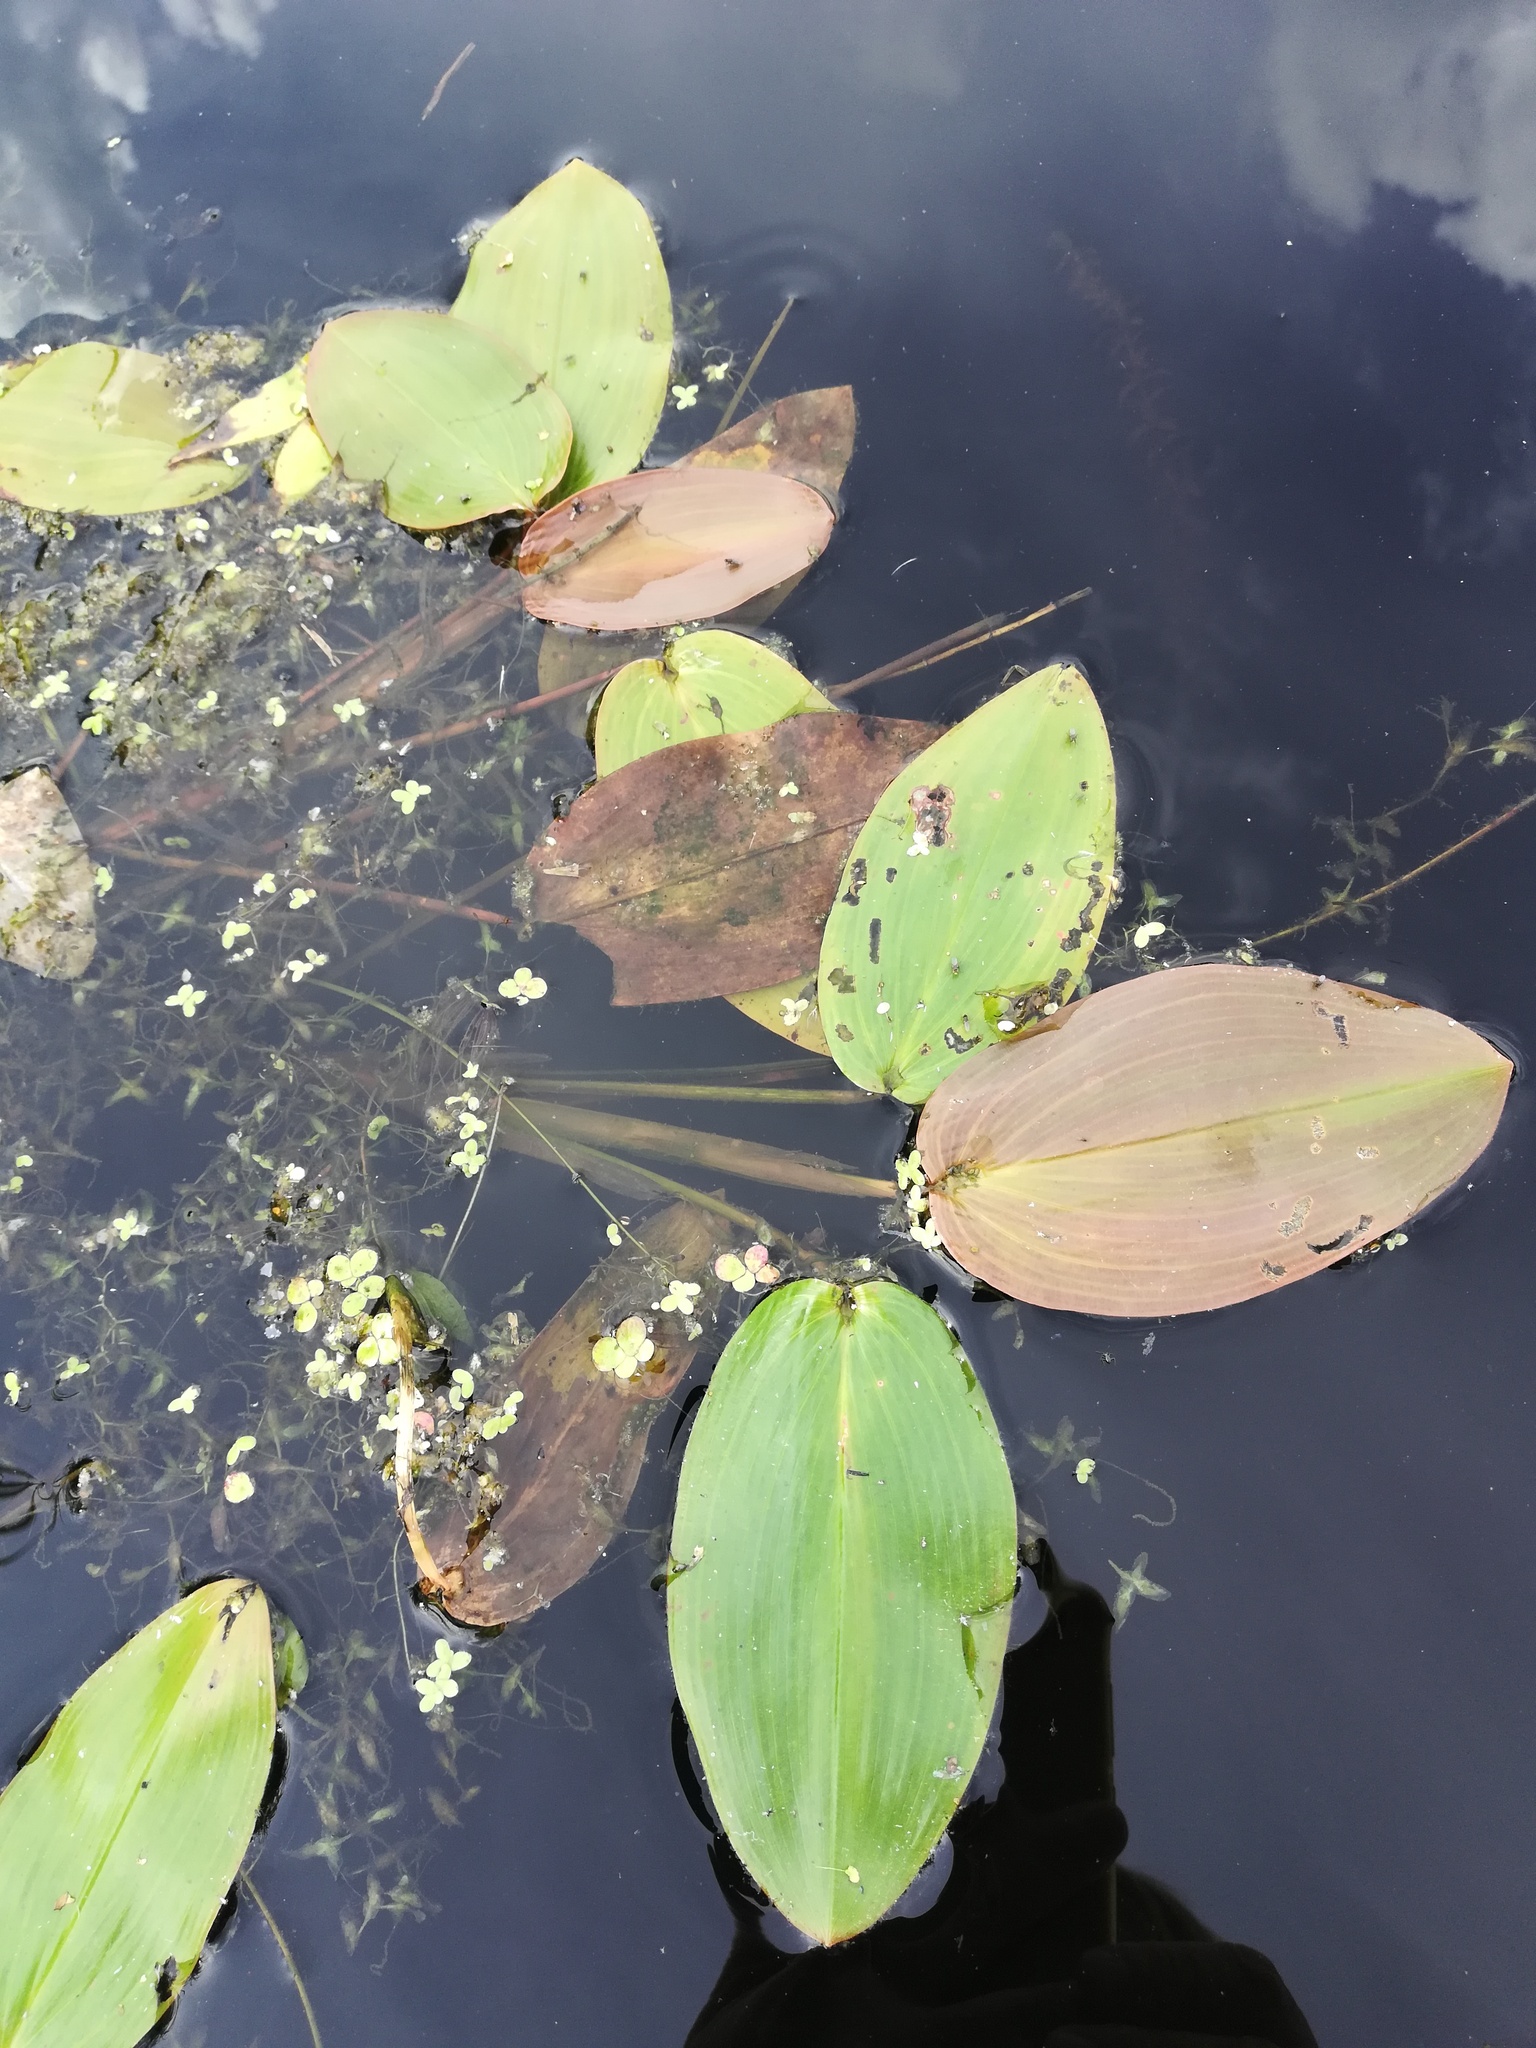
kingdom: Plantae
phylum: Tracheophyta
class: Liliopsida
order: Alismatales
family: Potamogetonaceae
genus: Potamogeton
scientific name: Potamogeton natans
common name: Broad-leaved pondweed
